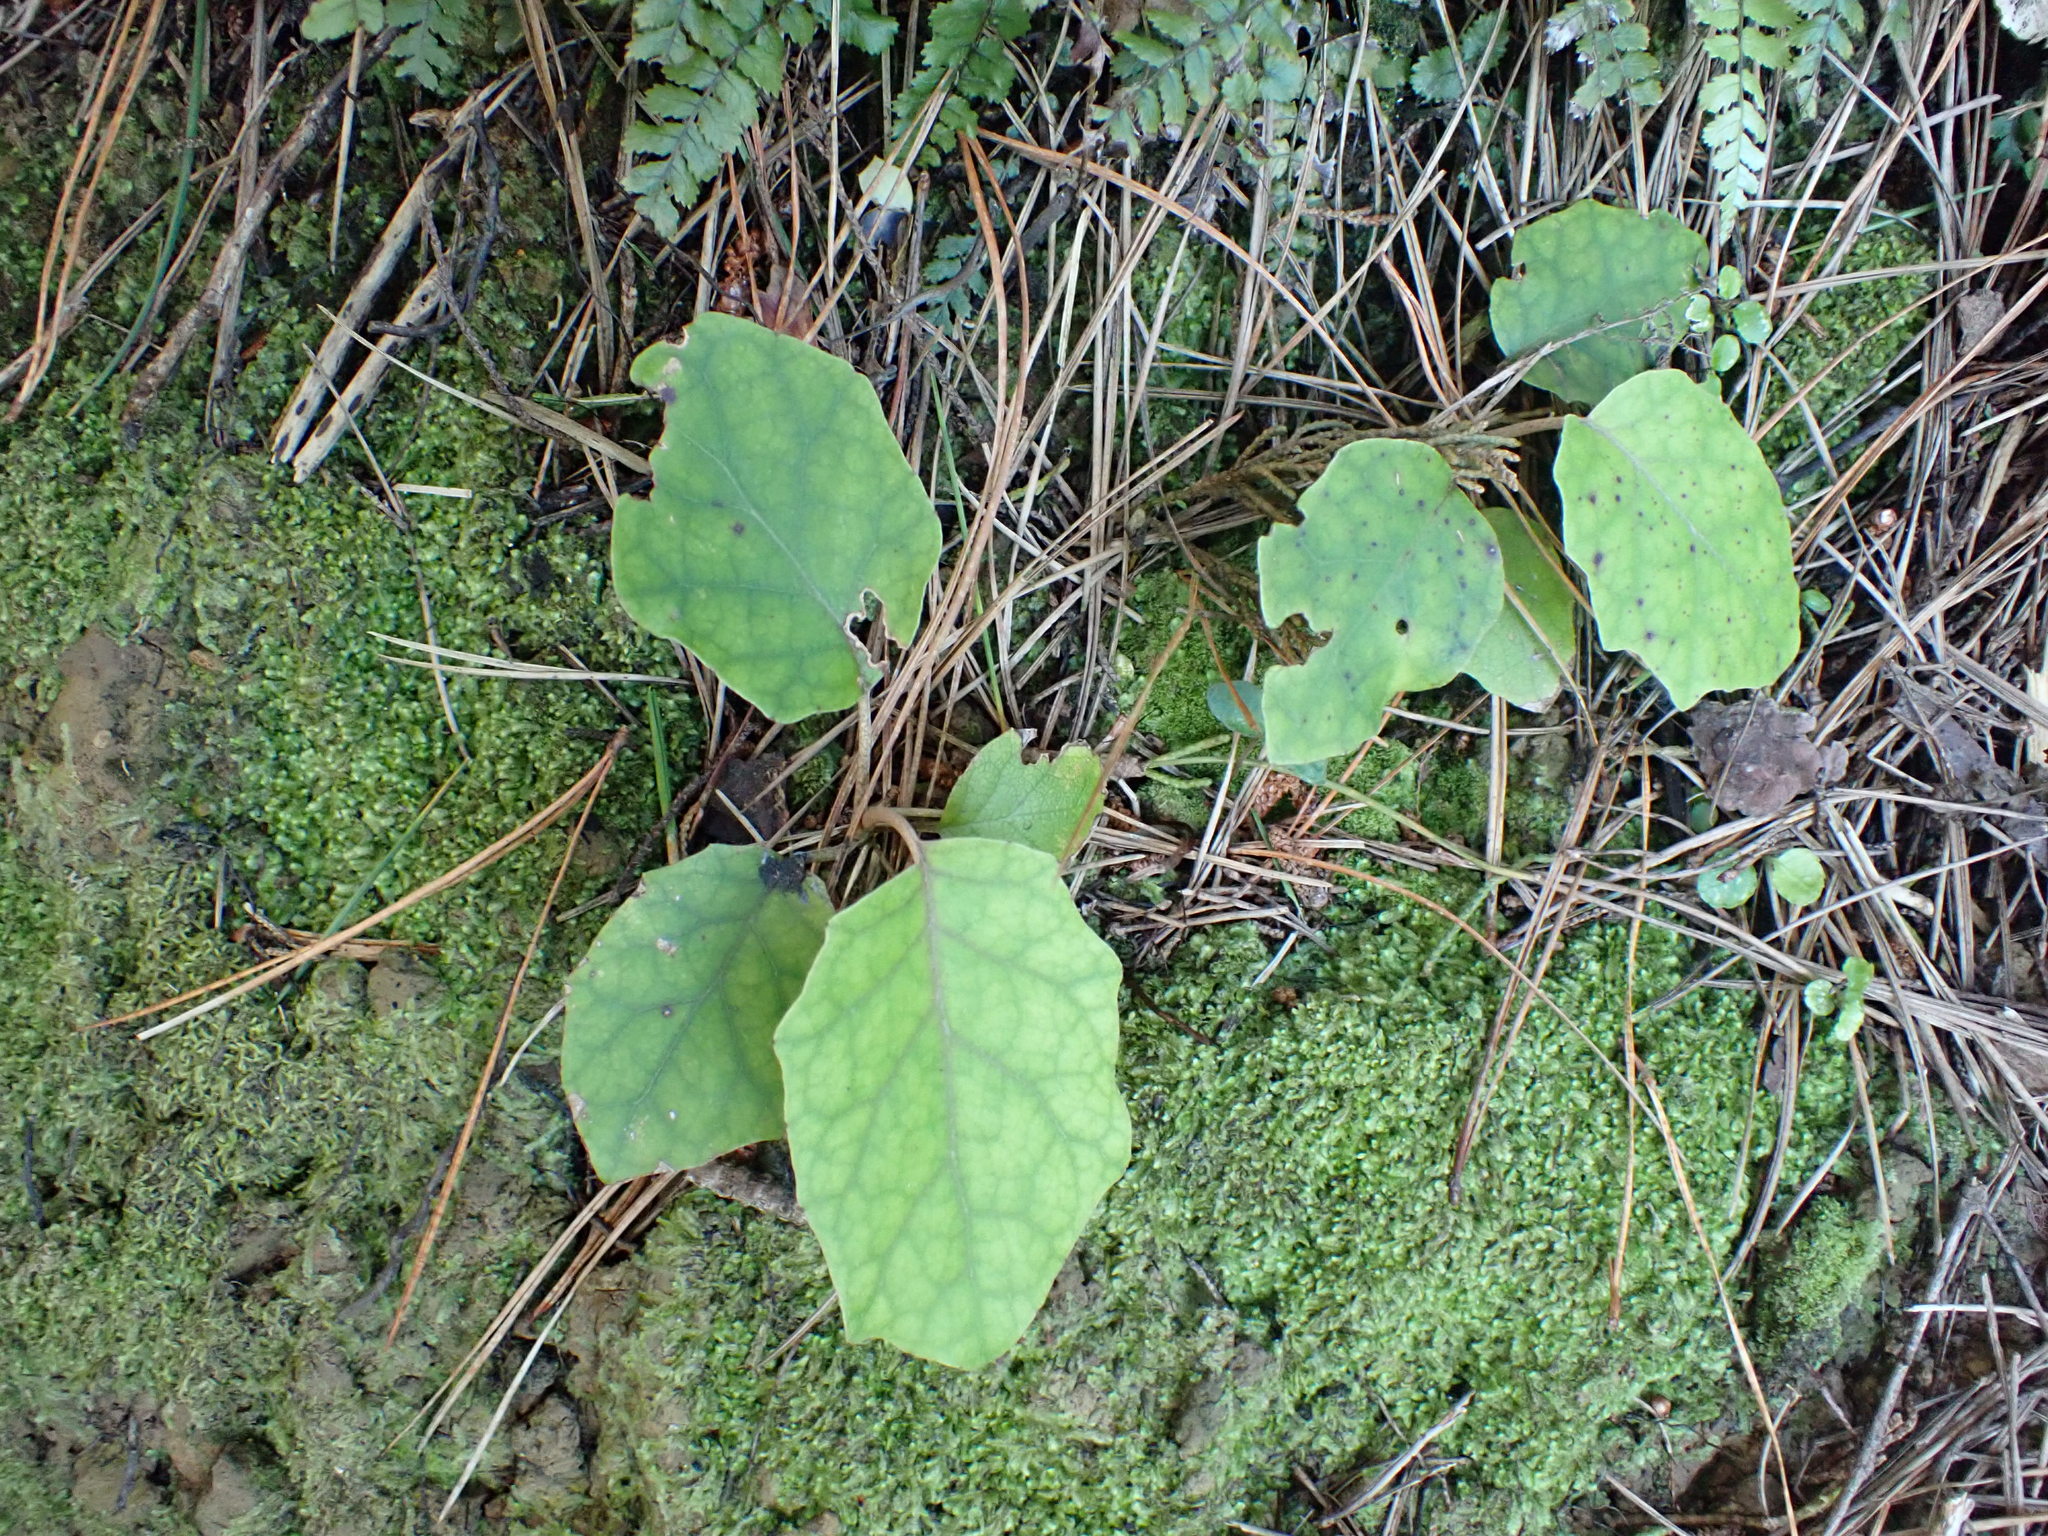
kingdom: Plantae
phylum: Tracheophyta
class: Magnoliopsida
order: Asterales
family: Asteraceae
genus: Brachyglottis
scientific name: Brachyglottis repanda
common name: Hedge ragwort
